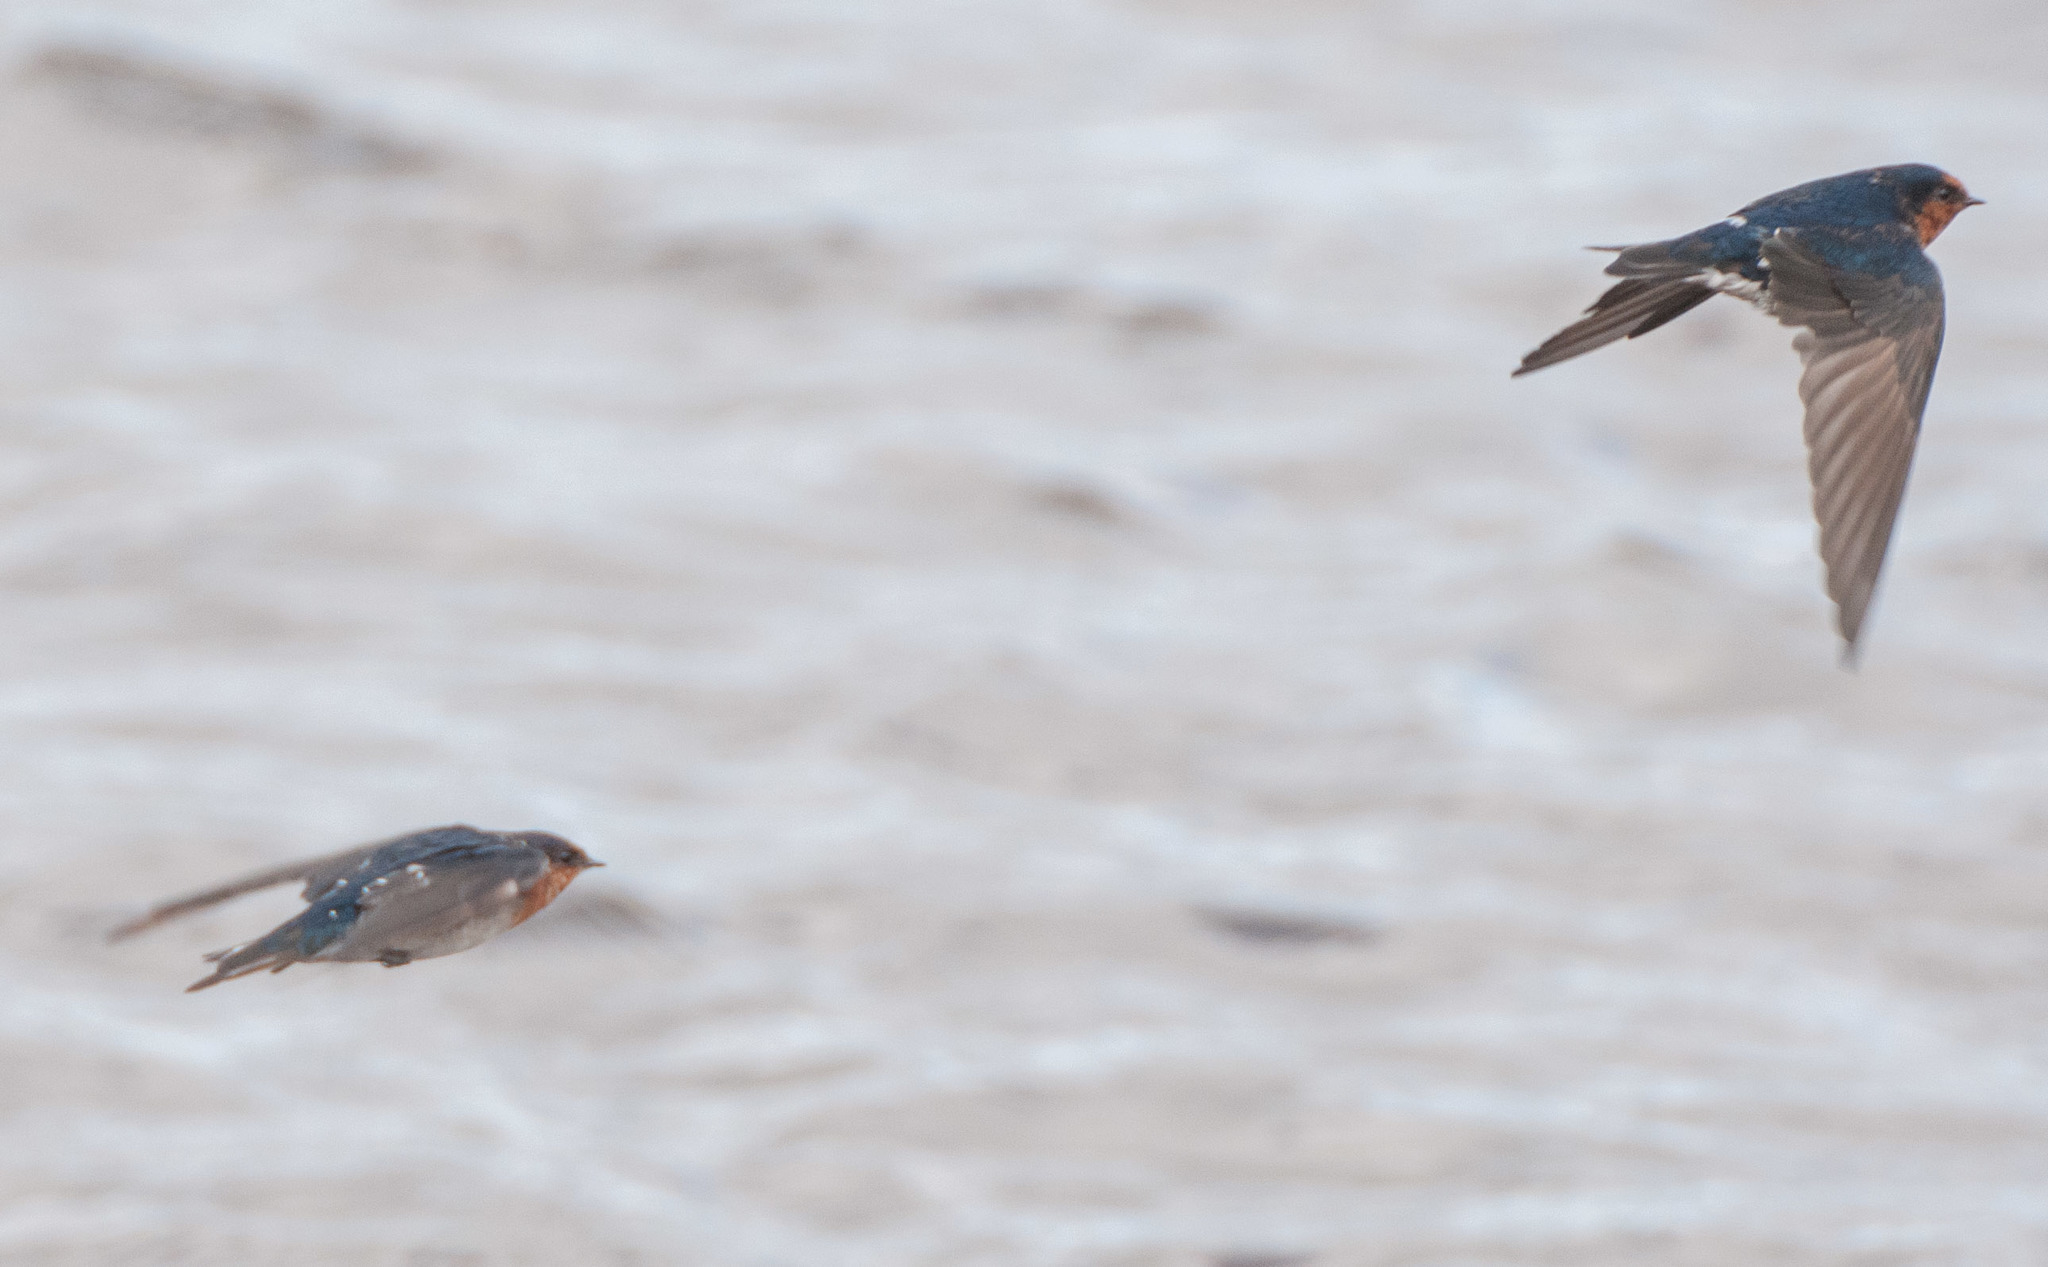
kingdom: Animalia
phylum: Chordata
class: Aves
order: Passeriformes
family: Hirundinidae
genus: Hirundo
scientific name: Hirundo neoxena
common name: Welcome swallow
